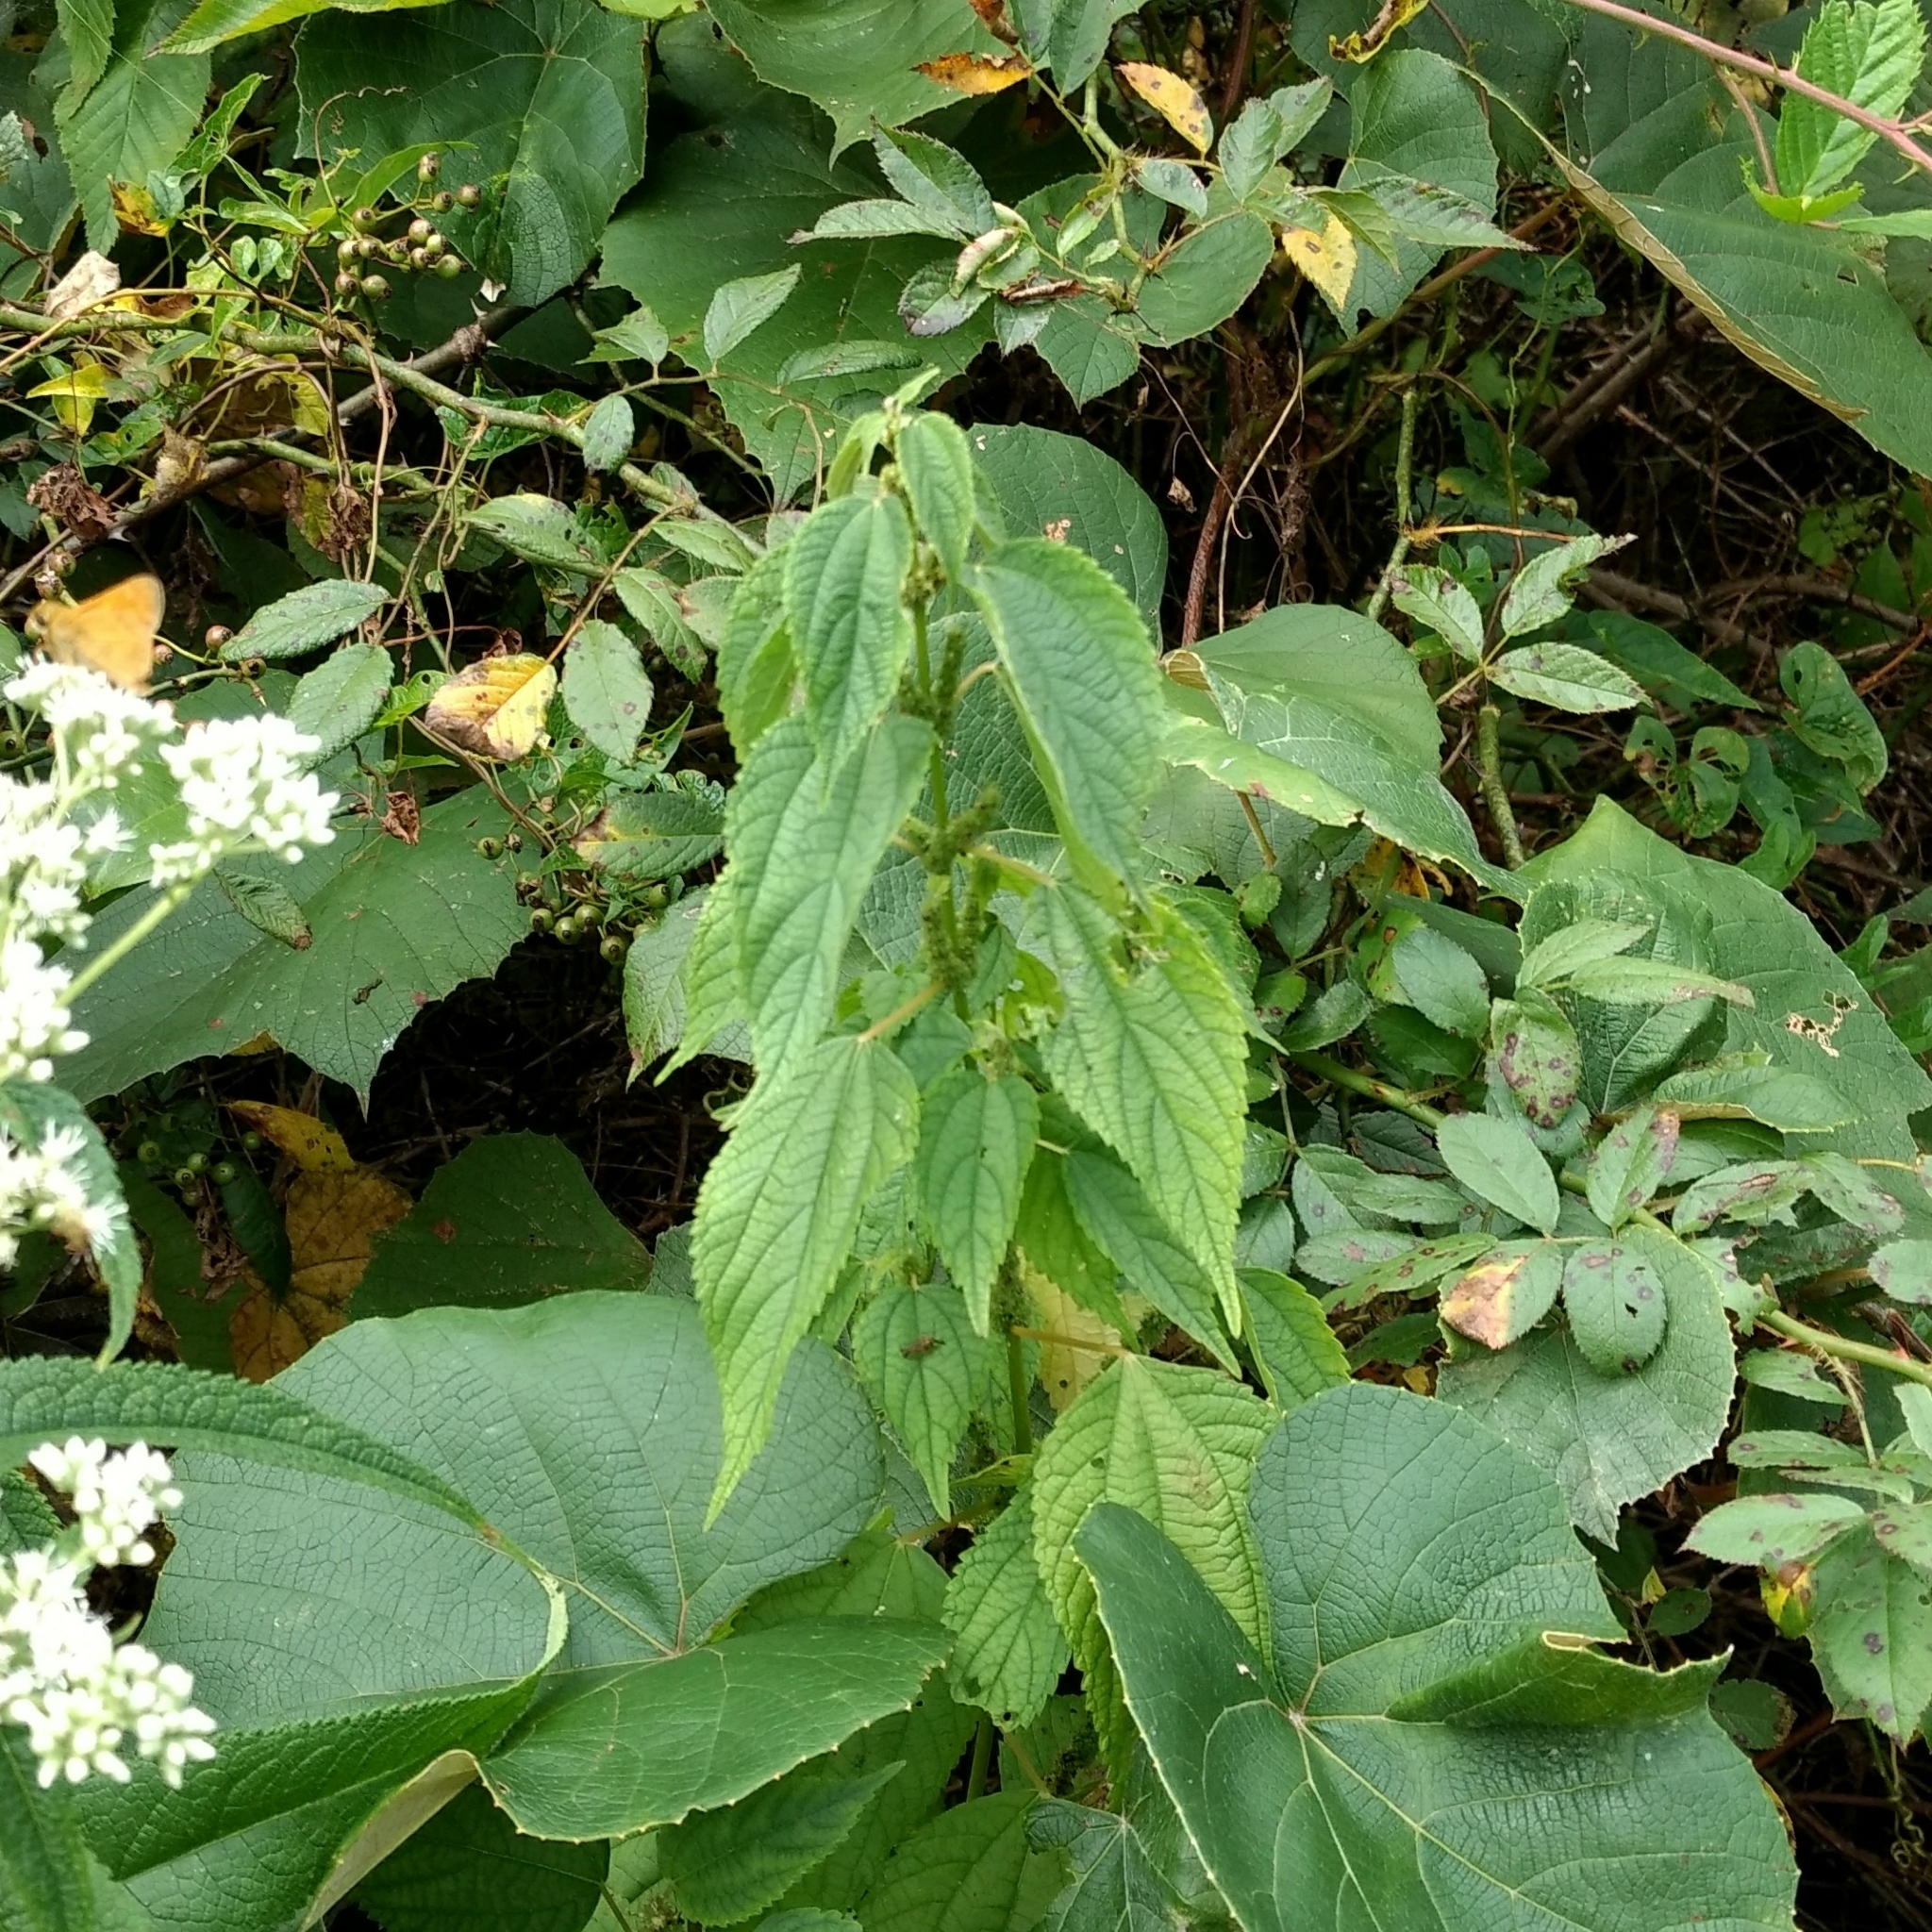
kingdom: Plantae
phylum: Tracheophyta
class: Magnoliopsida
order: Rosales
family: Urticaceae
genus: Urtica
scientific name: Urtica dioica
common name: Common nettle
